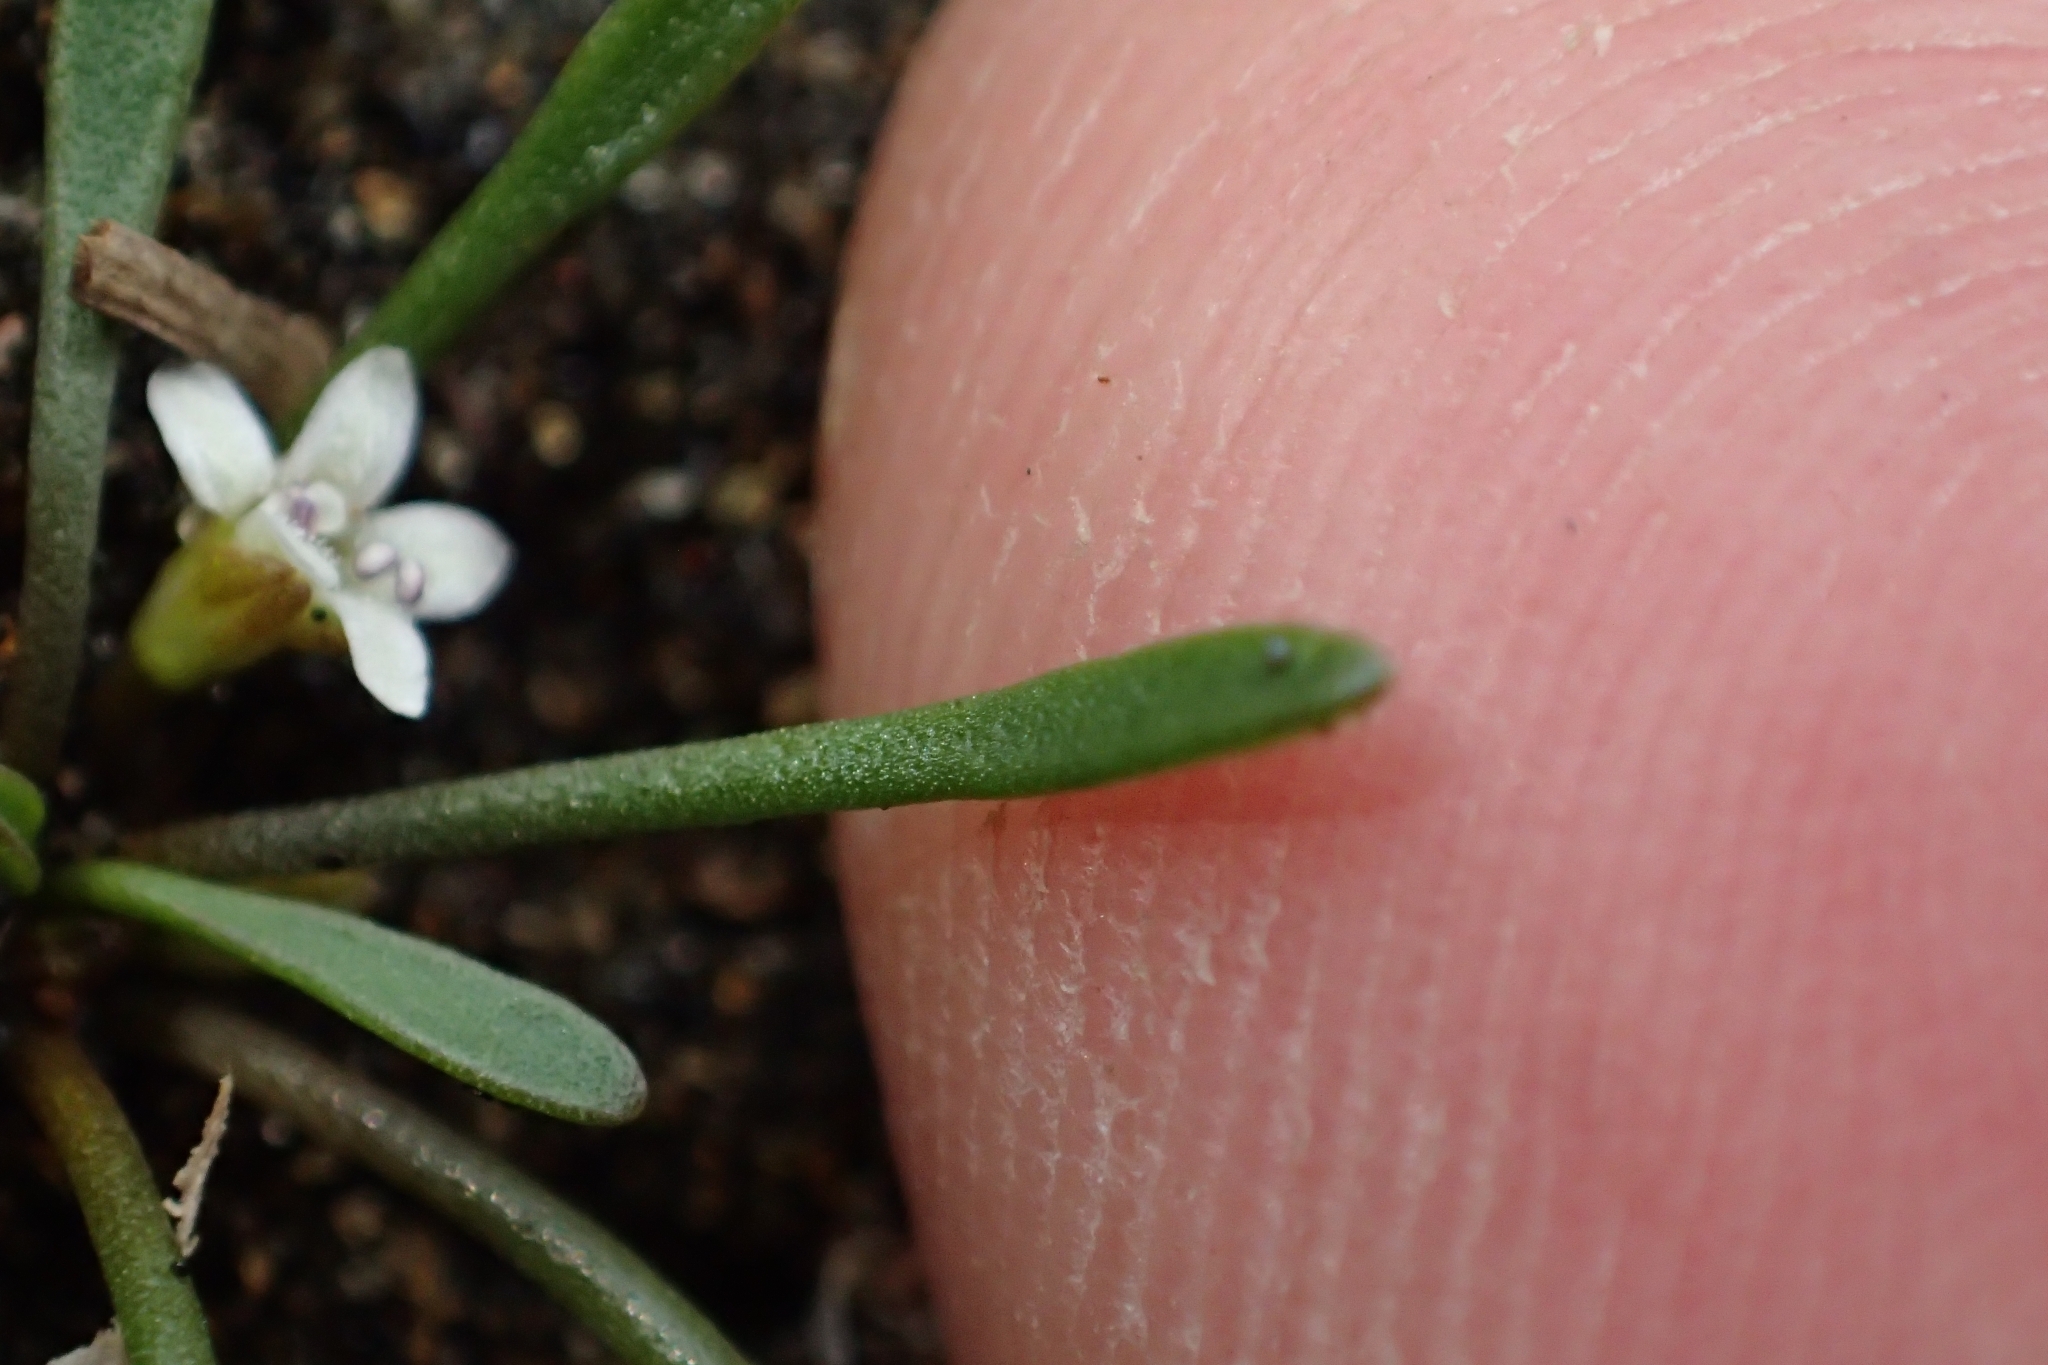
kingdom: Plantae
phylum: Tracheophyta
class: Magnoliopsida
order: Lamiales
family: Scrophulariaceae
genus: Limosella
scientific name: Limosella australis
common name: Welsh mudwort
